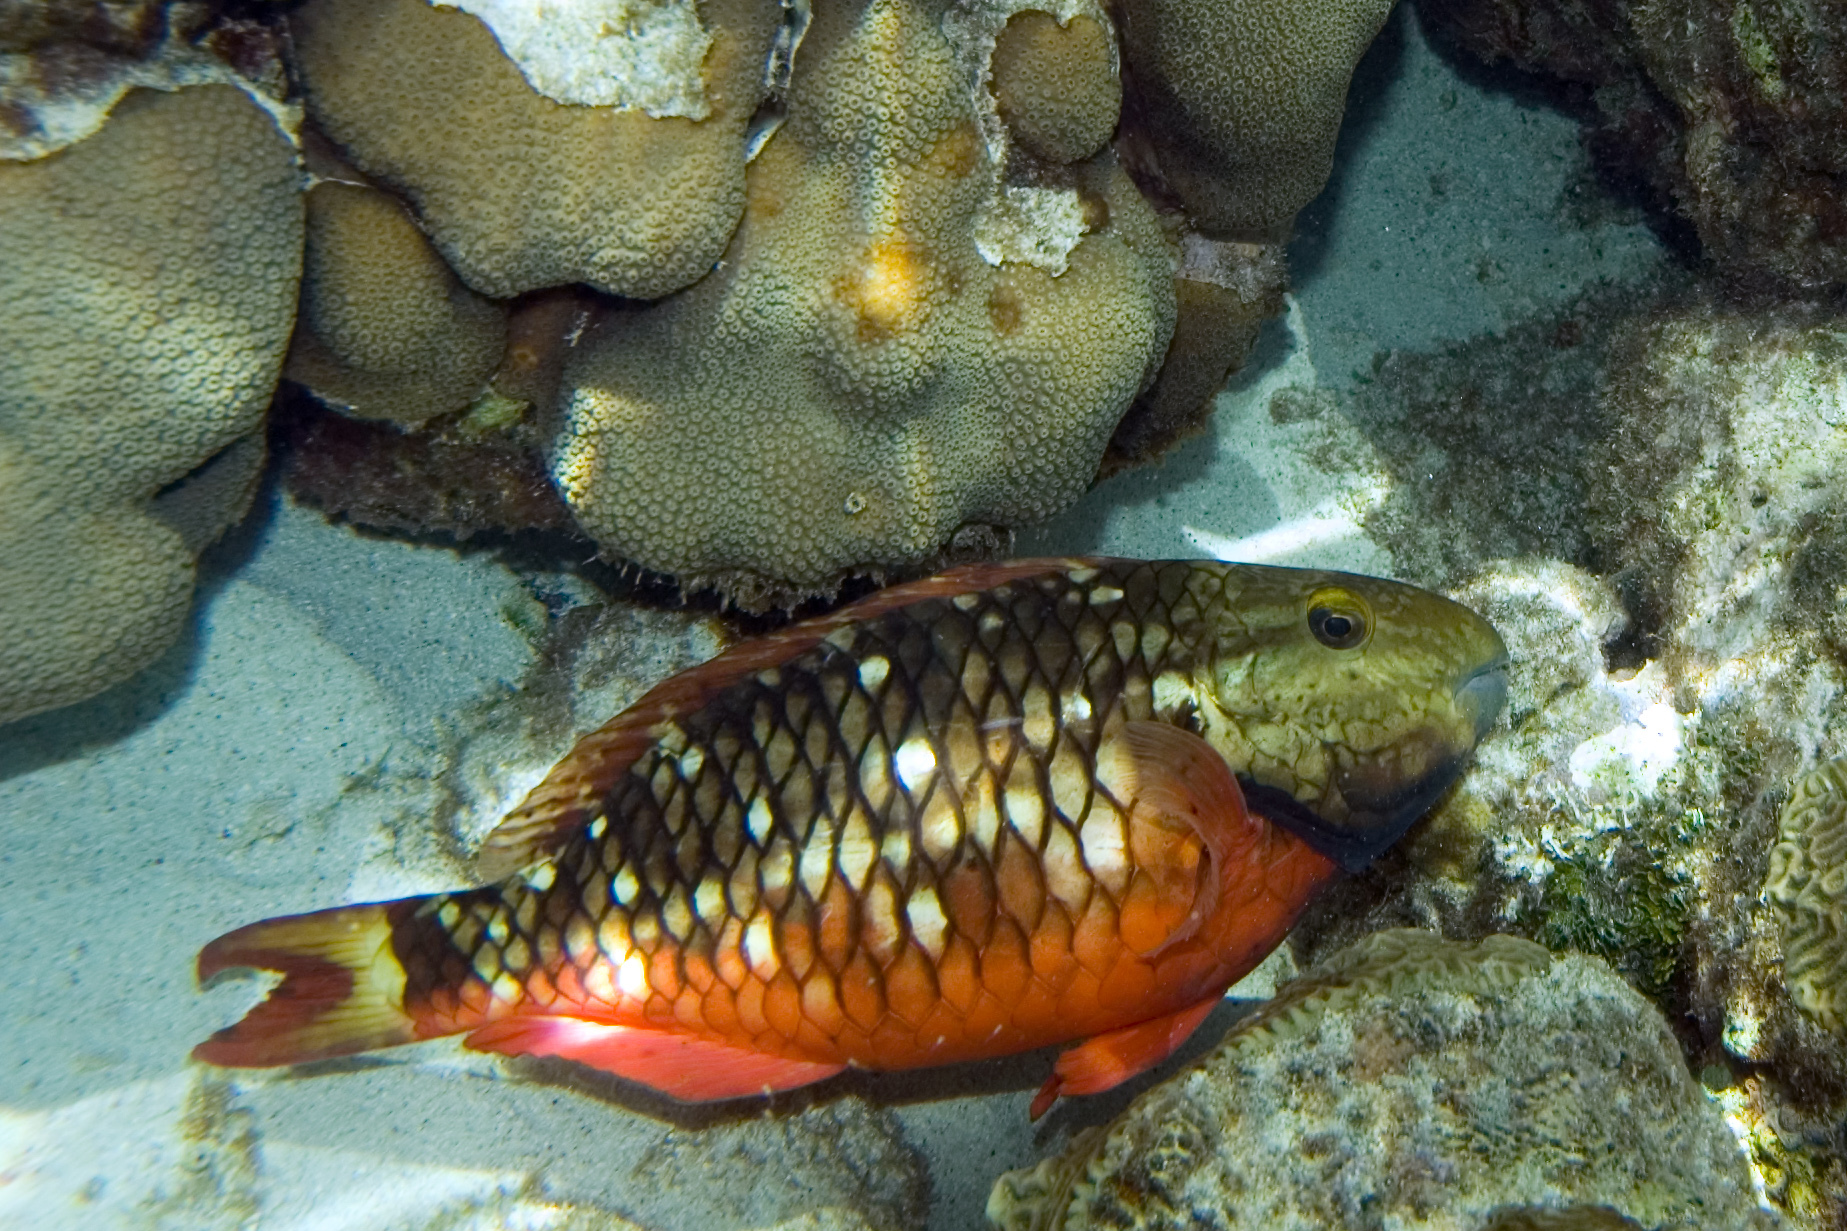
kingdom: Animalia
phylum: Chordata
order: Perciformes
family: Scaridae
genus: Sparisoma
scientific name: Sparisoma viride
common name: Stoplight parrotfish
